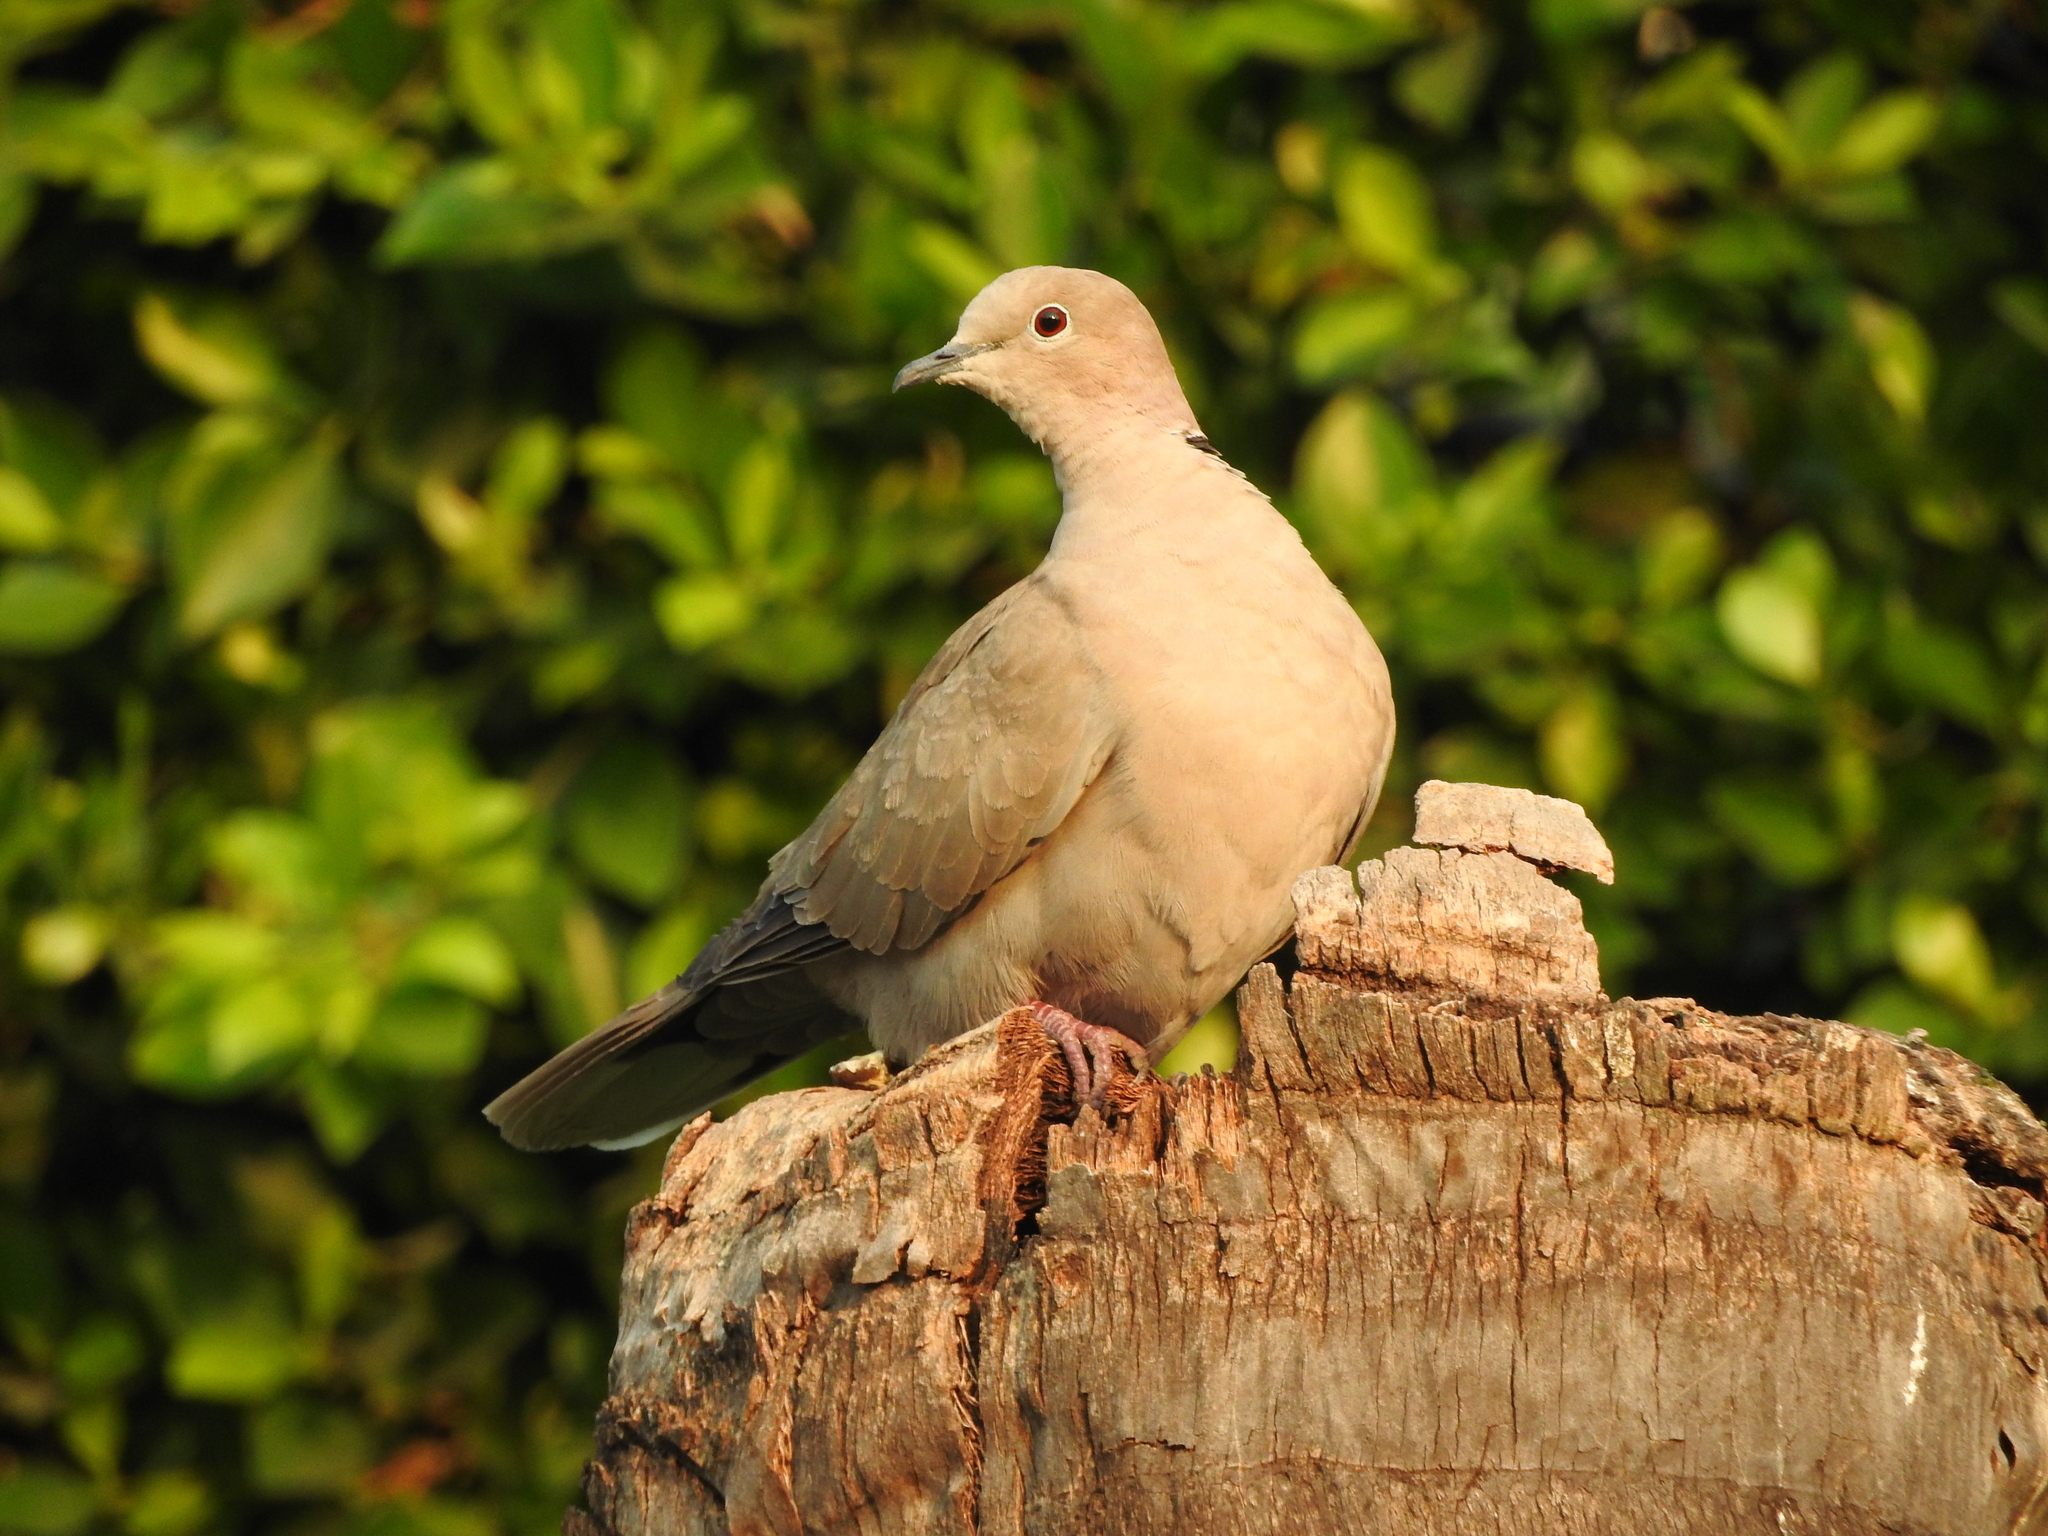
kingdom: Animalia
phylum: Chordata
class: Aves
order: Columbiformes
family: Columbidae
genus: Streptopelia
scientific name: Streptopelia decaocto
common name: Eurasian collared dove
